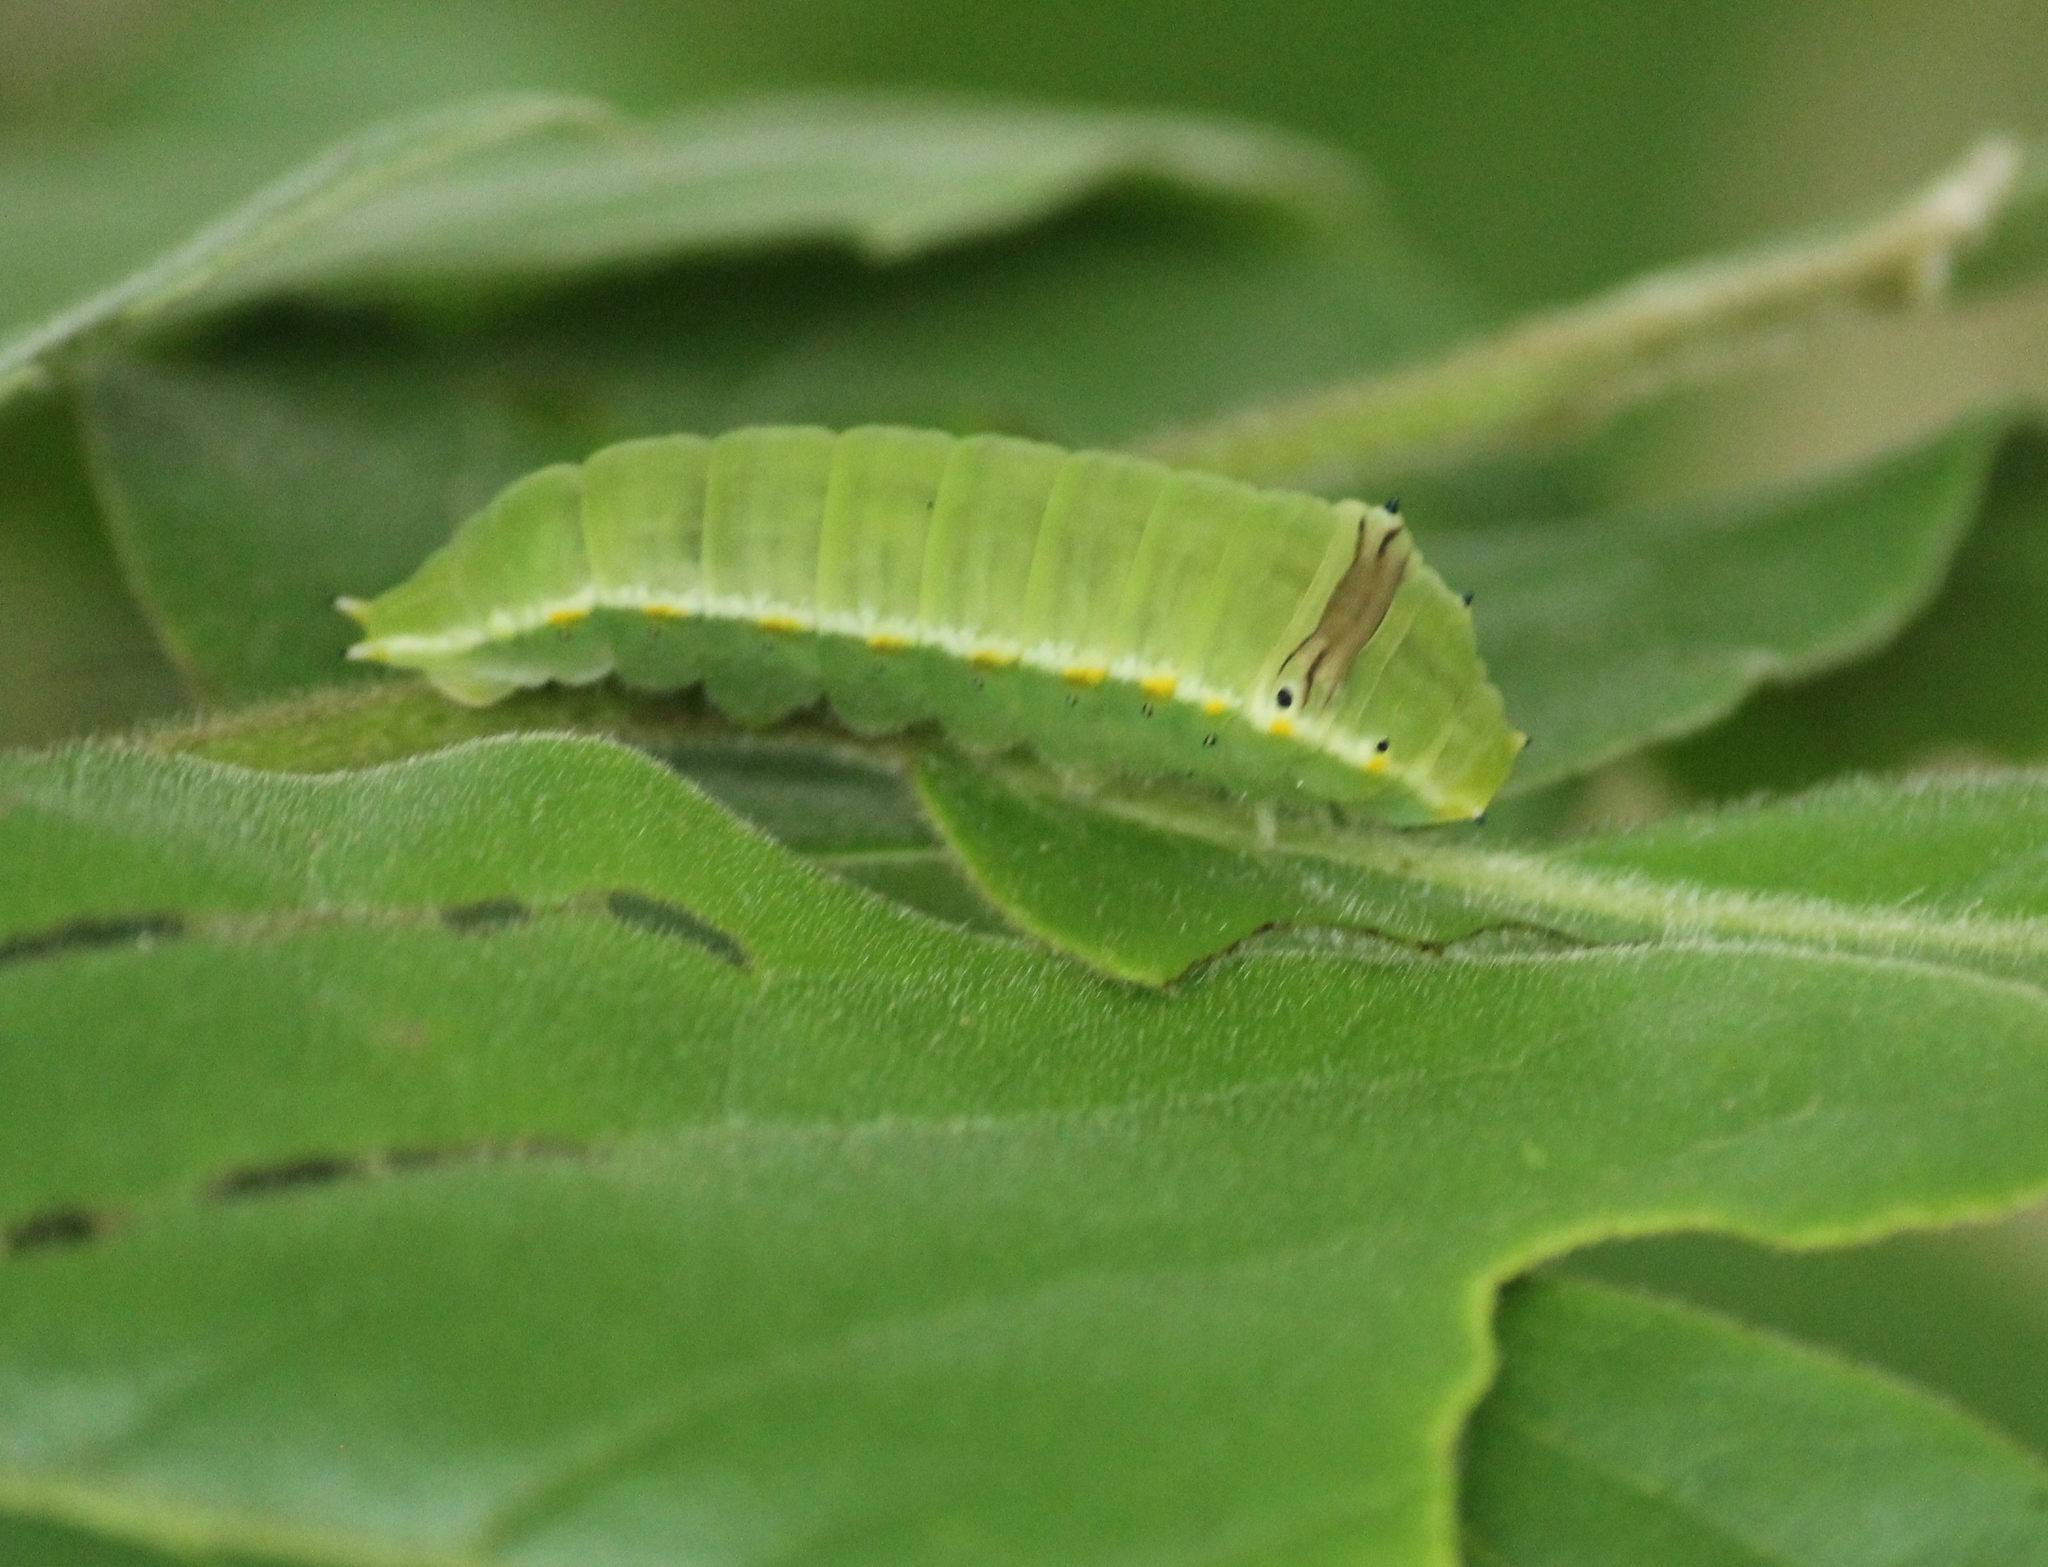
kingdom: Animalia
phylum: Arthropoda
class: Insecta
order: Lepidoptera
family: Papilionidae
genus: Graphium
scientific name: Graphium nomius
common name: Spot swordtail
